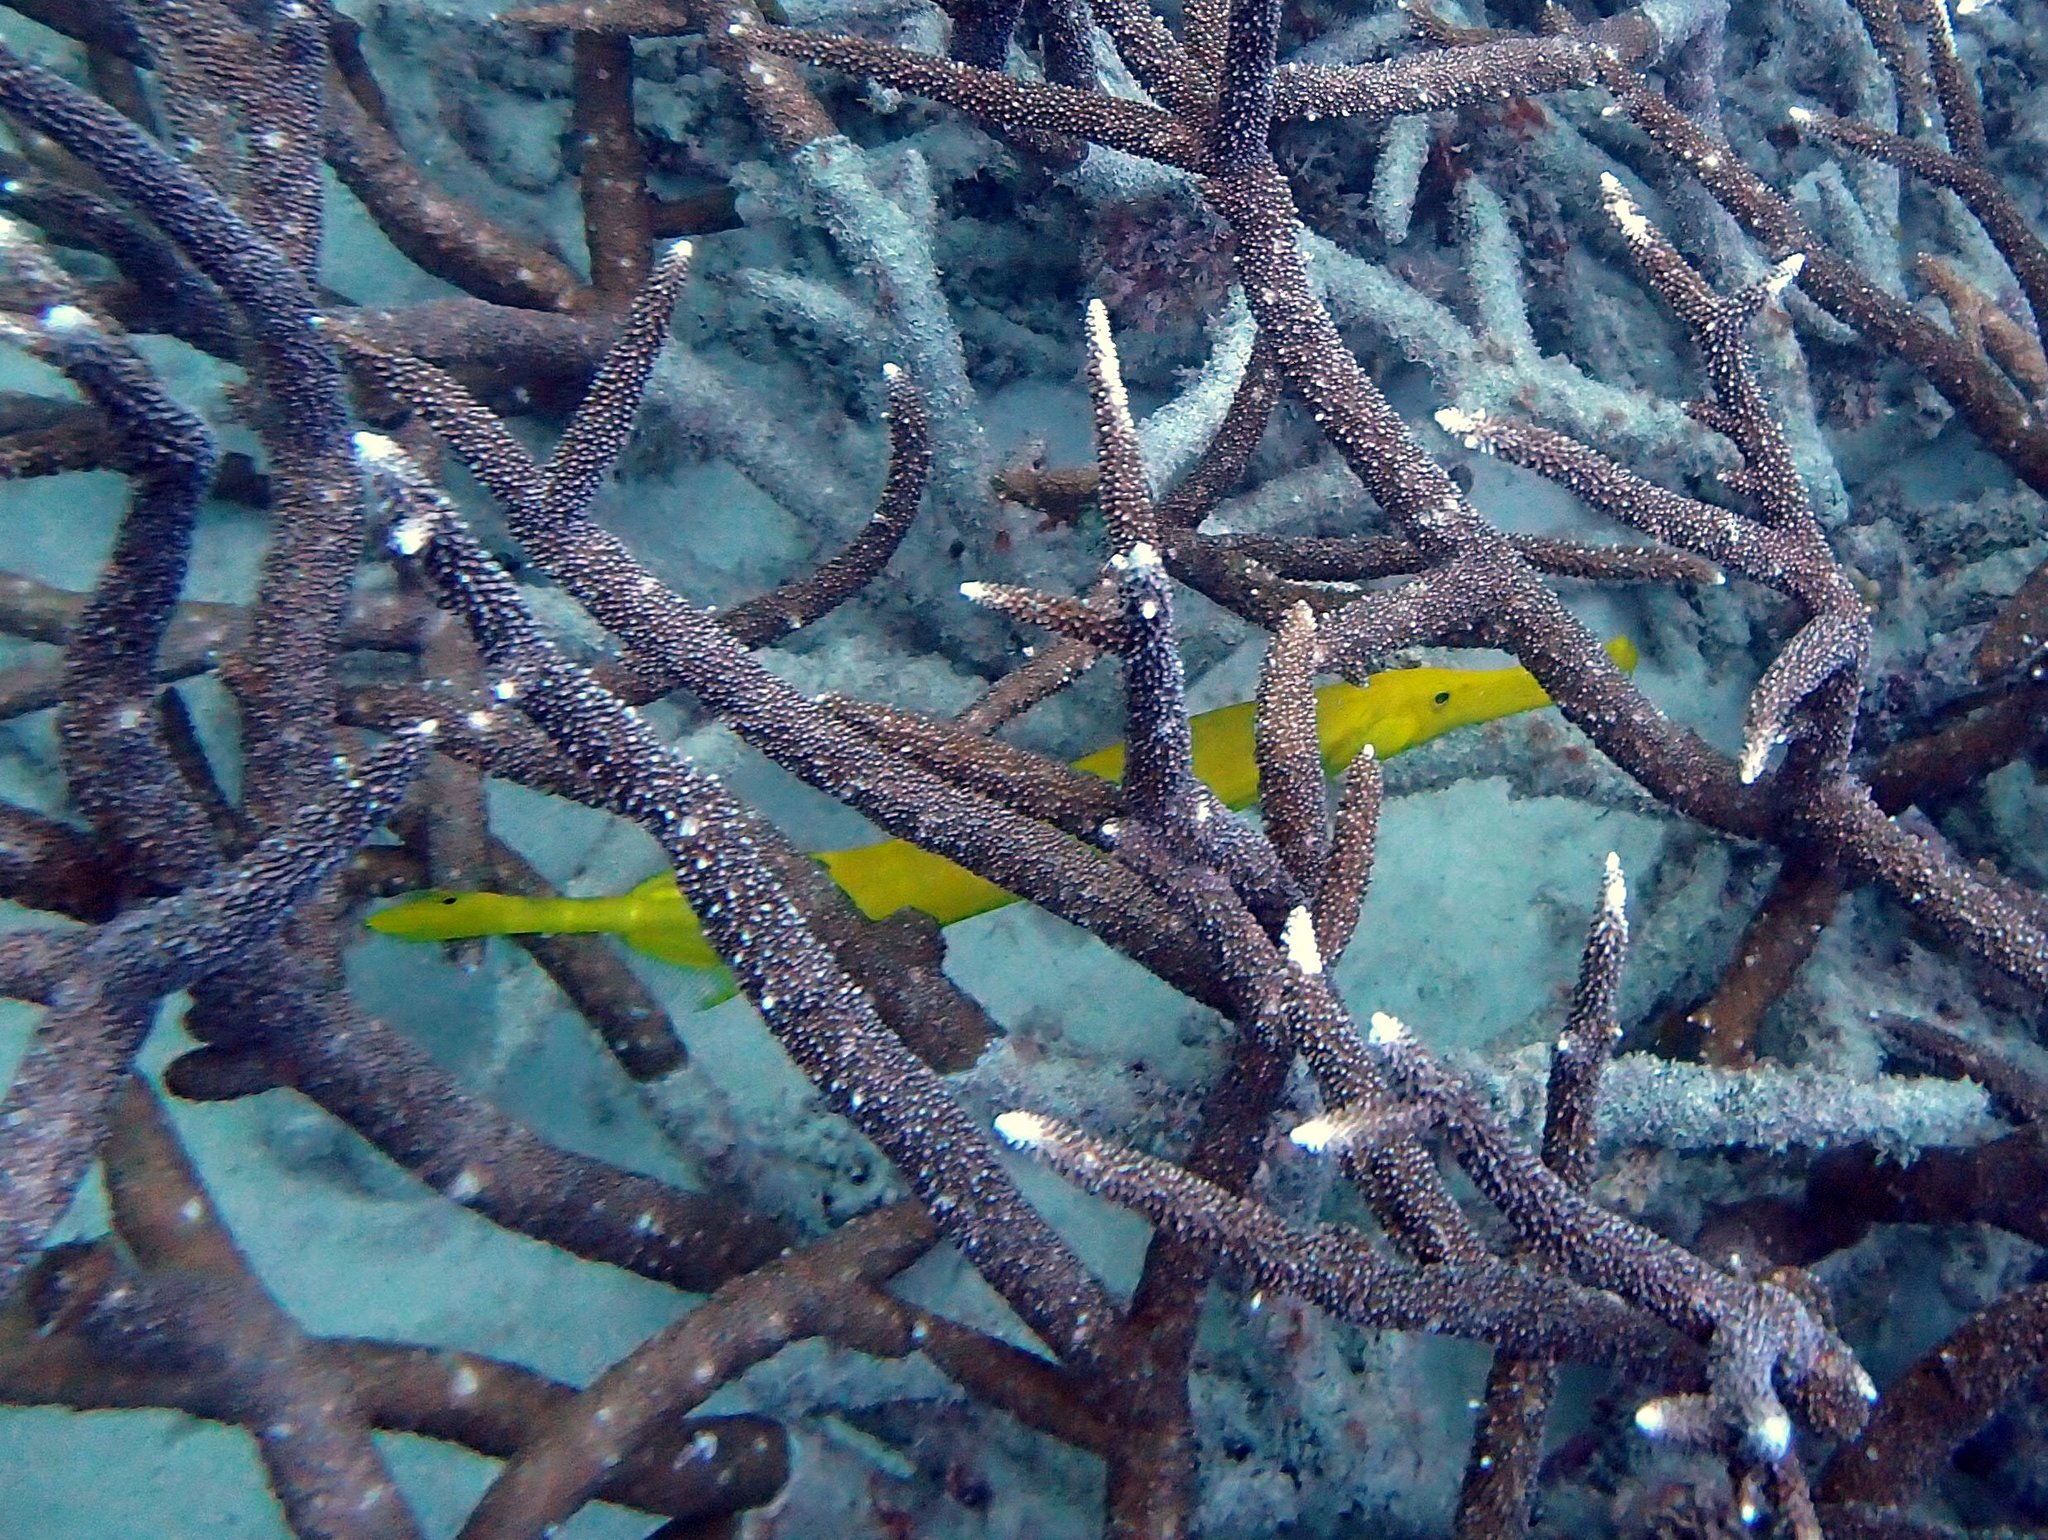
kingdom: Animalia
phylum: Chordata
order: Syngnathiformes
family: Aulostomidae
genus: Aulostomus
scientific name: Aulostomus chinensis
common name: Chinese trumpetfish
